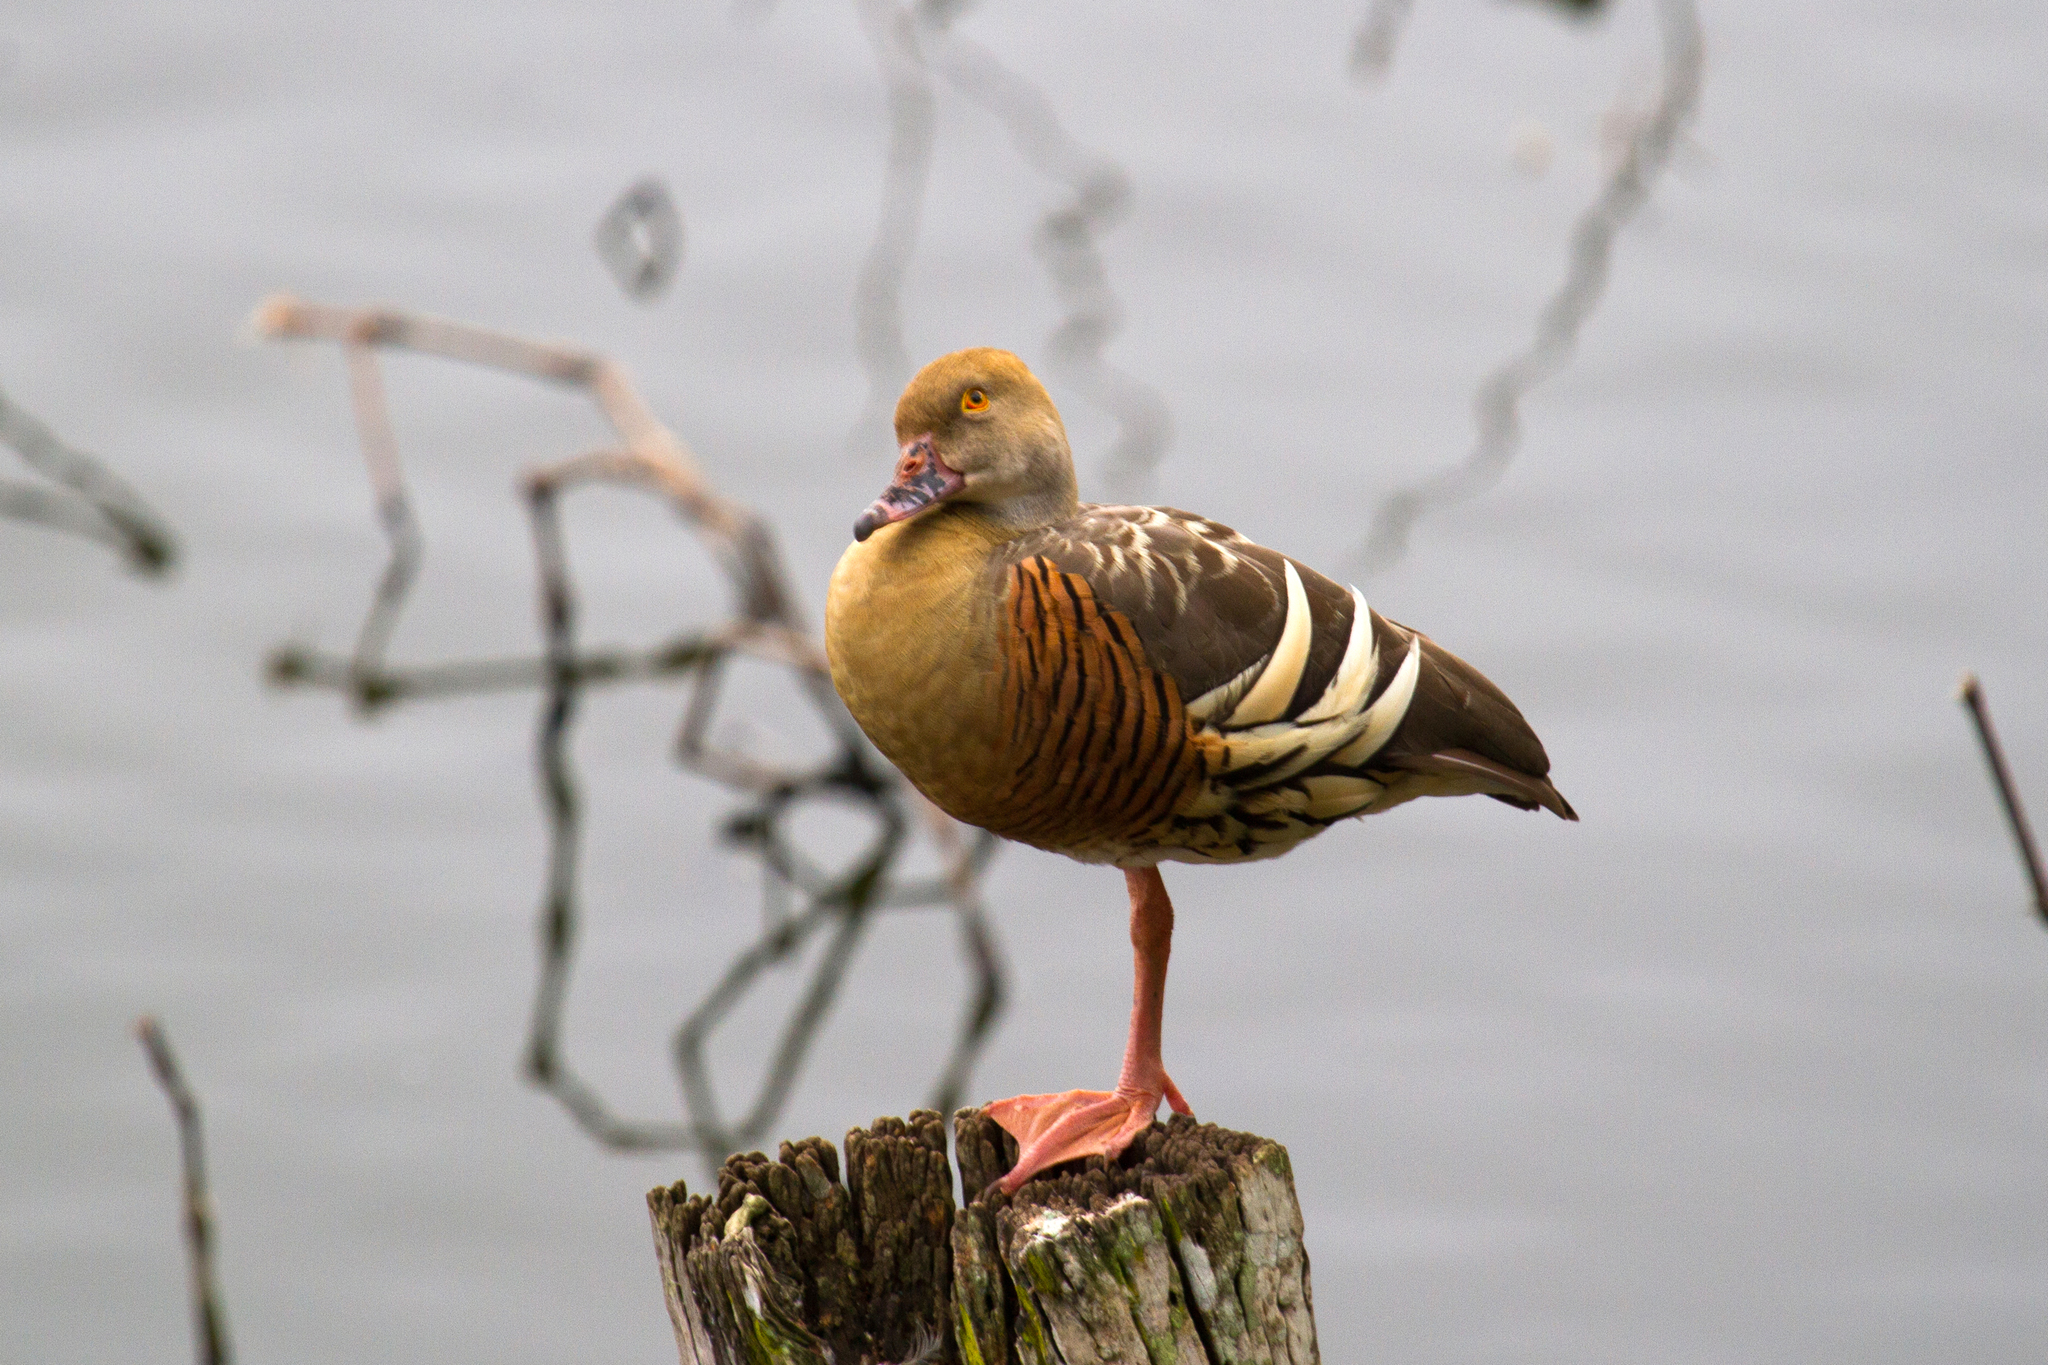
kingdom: Animalia
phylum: Chordata
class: Aves
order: Anseriformes
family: Anatidae
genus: Dendrocygna
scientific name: Dendrocygna eytoni
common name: Plumed whistling-duck
